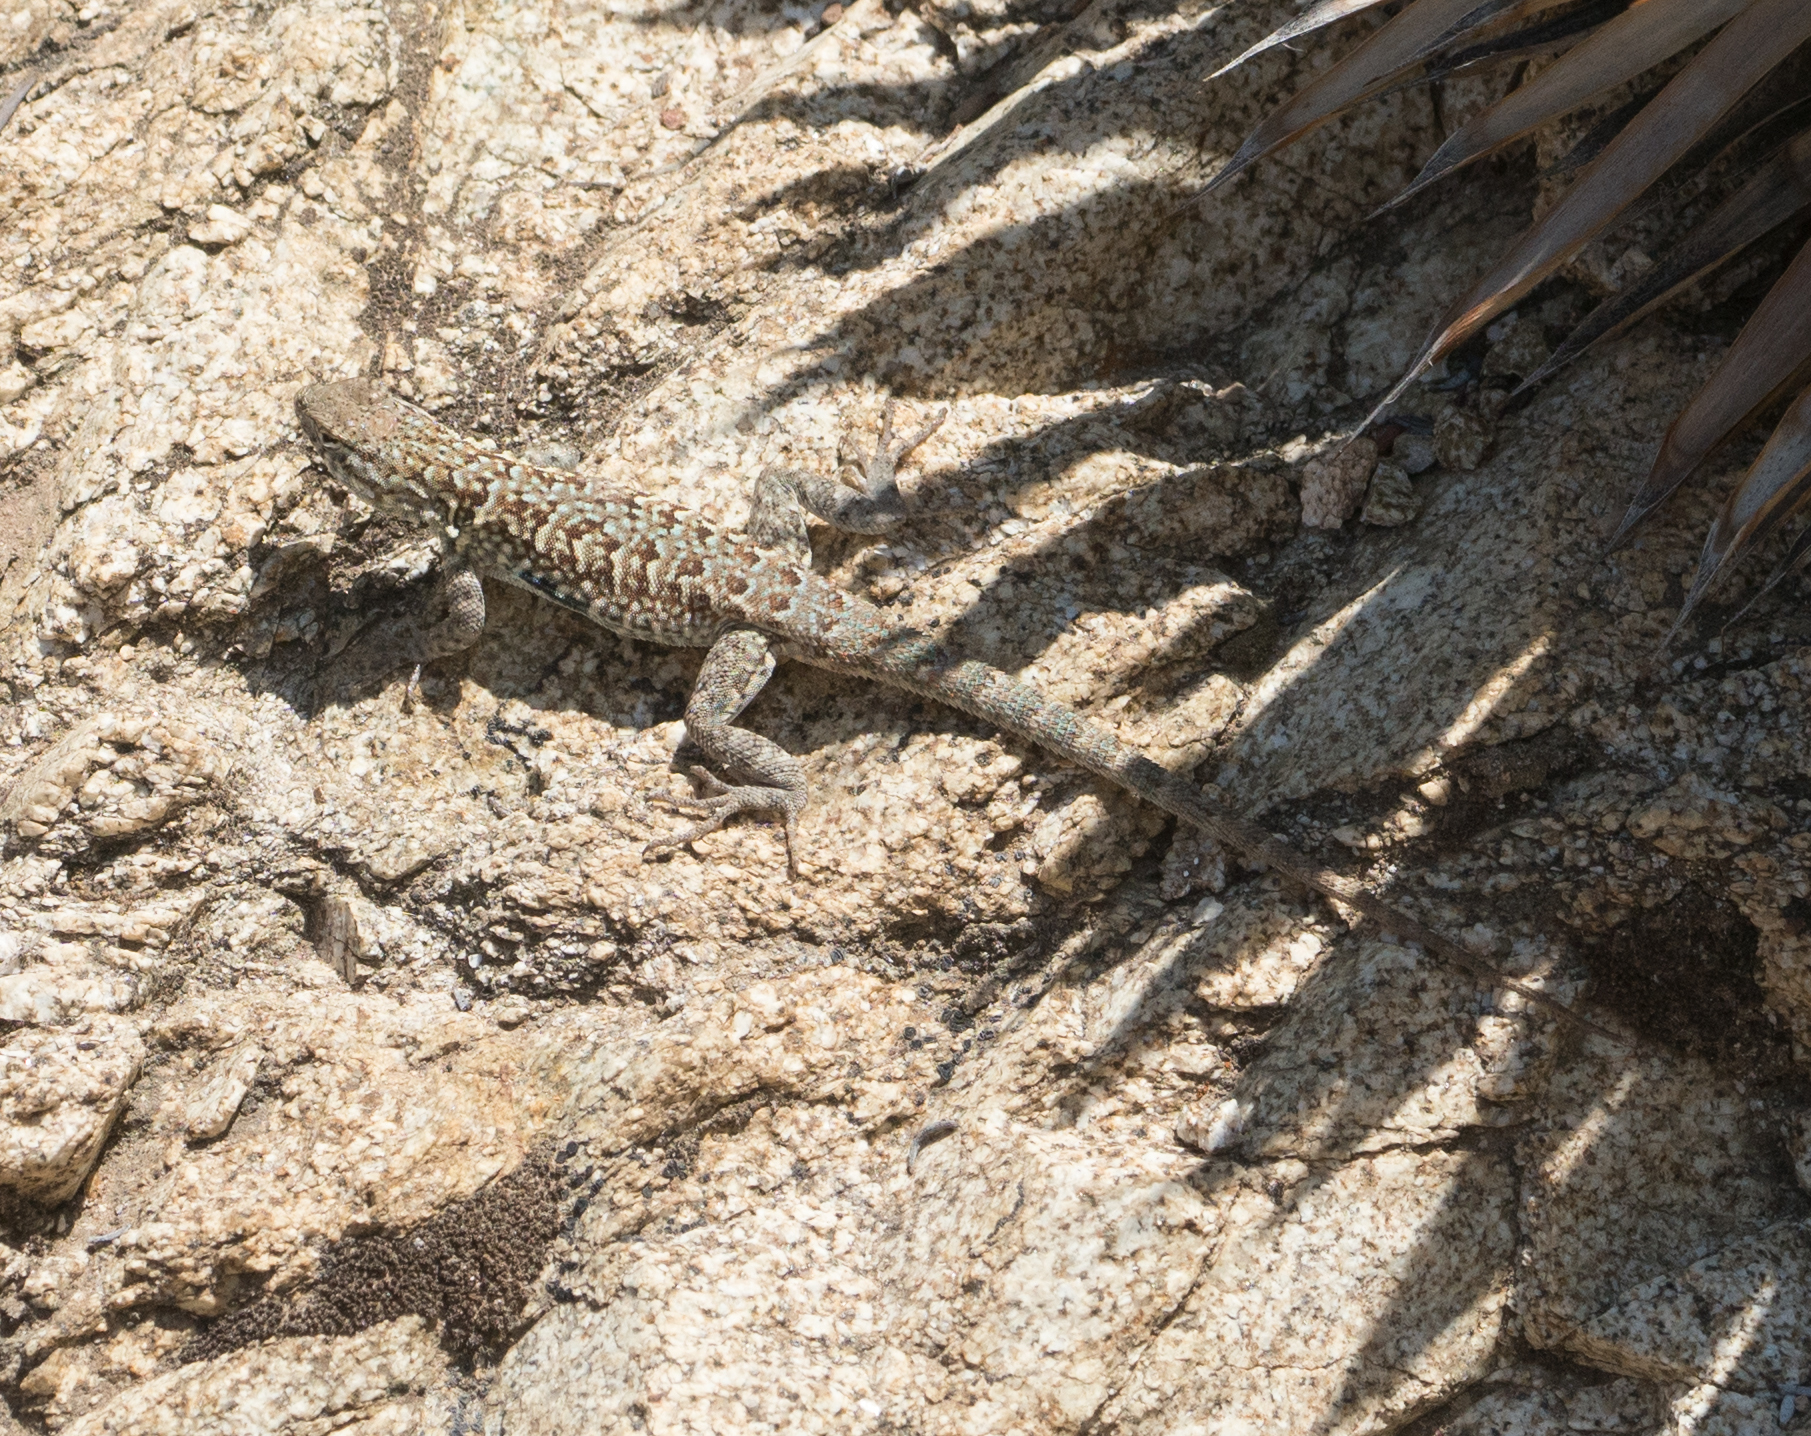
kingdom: Animalia
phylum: Chordata
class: Squamata
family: Phrynosomatidae
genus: Uta
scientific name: Uta stansburiana
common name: Side-blotched lizard
